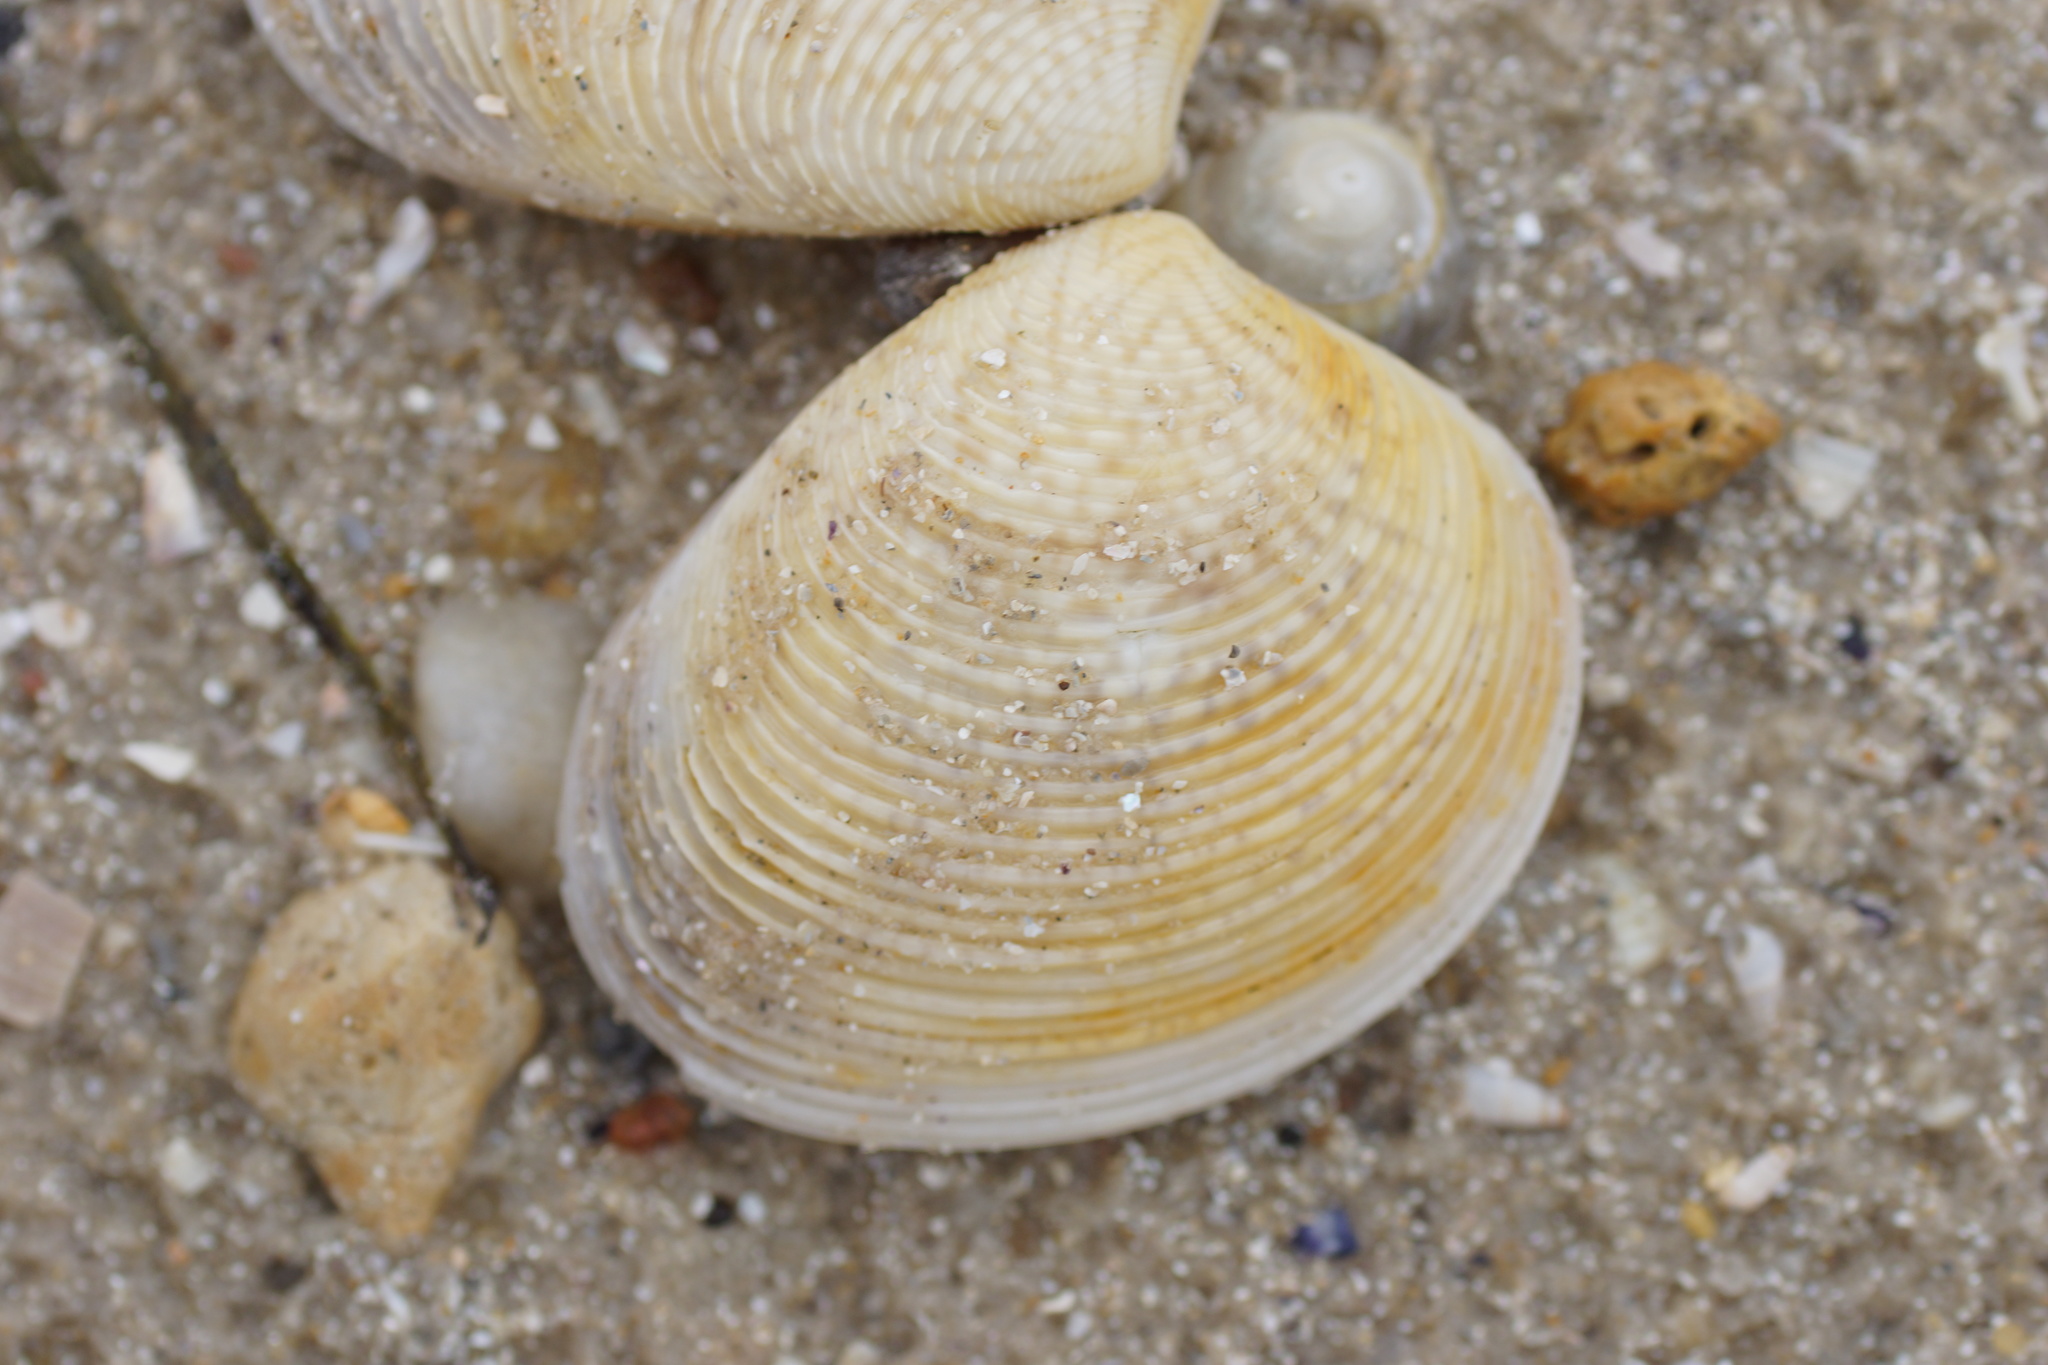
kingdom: Animalia
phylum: Mollusca
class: Bivalvia
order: Venerida
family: Veneridae
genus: Katelysia
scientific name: Katelysia scalarina
